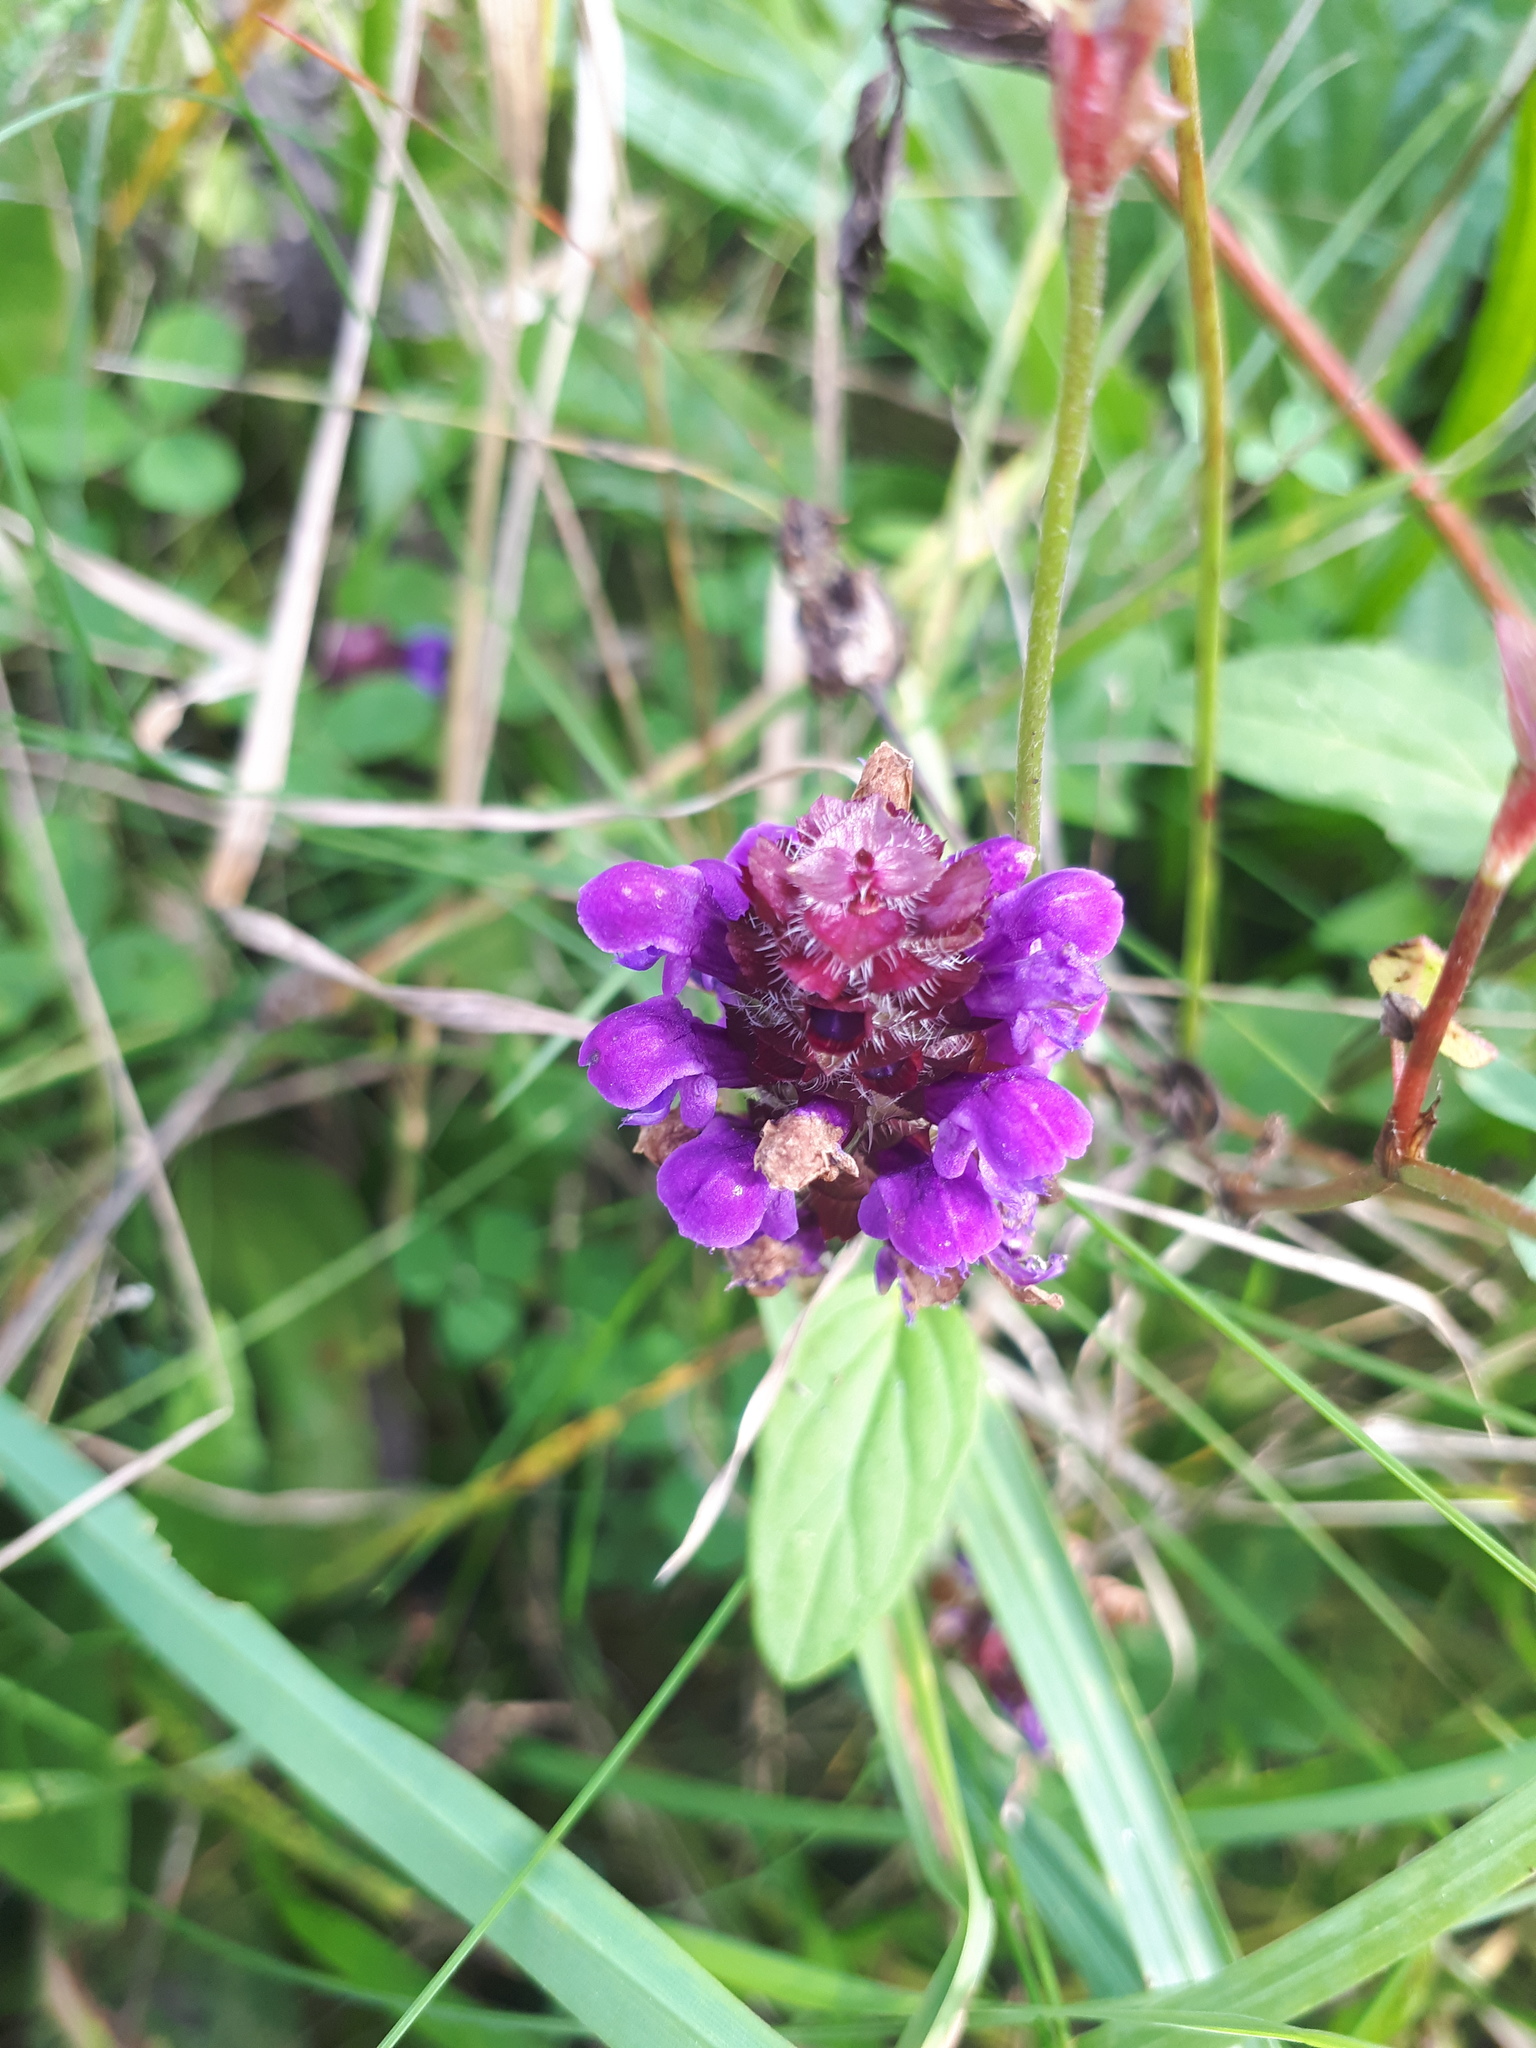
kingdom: Plantae
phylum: Tracheophyta
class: Magnoliopsida
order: Lamiales
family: Lamiaceae
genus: Prunella
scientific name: Prunella vulgaris
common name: Heal-all
